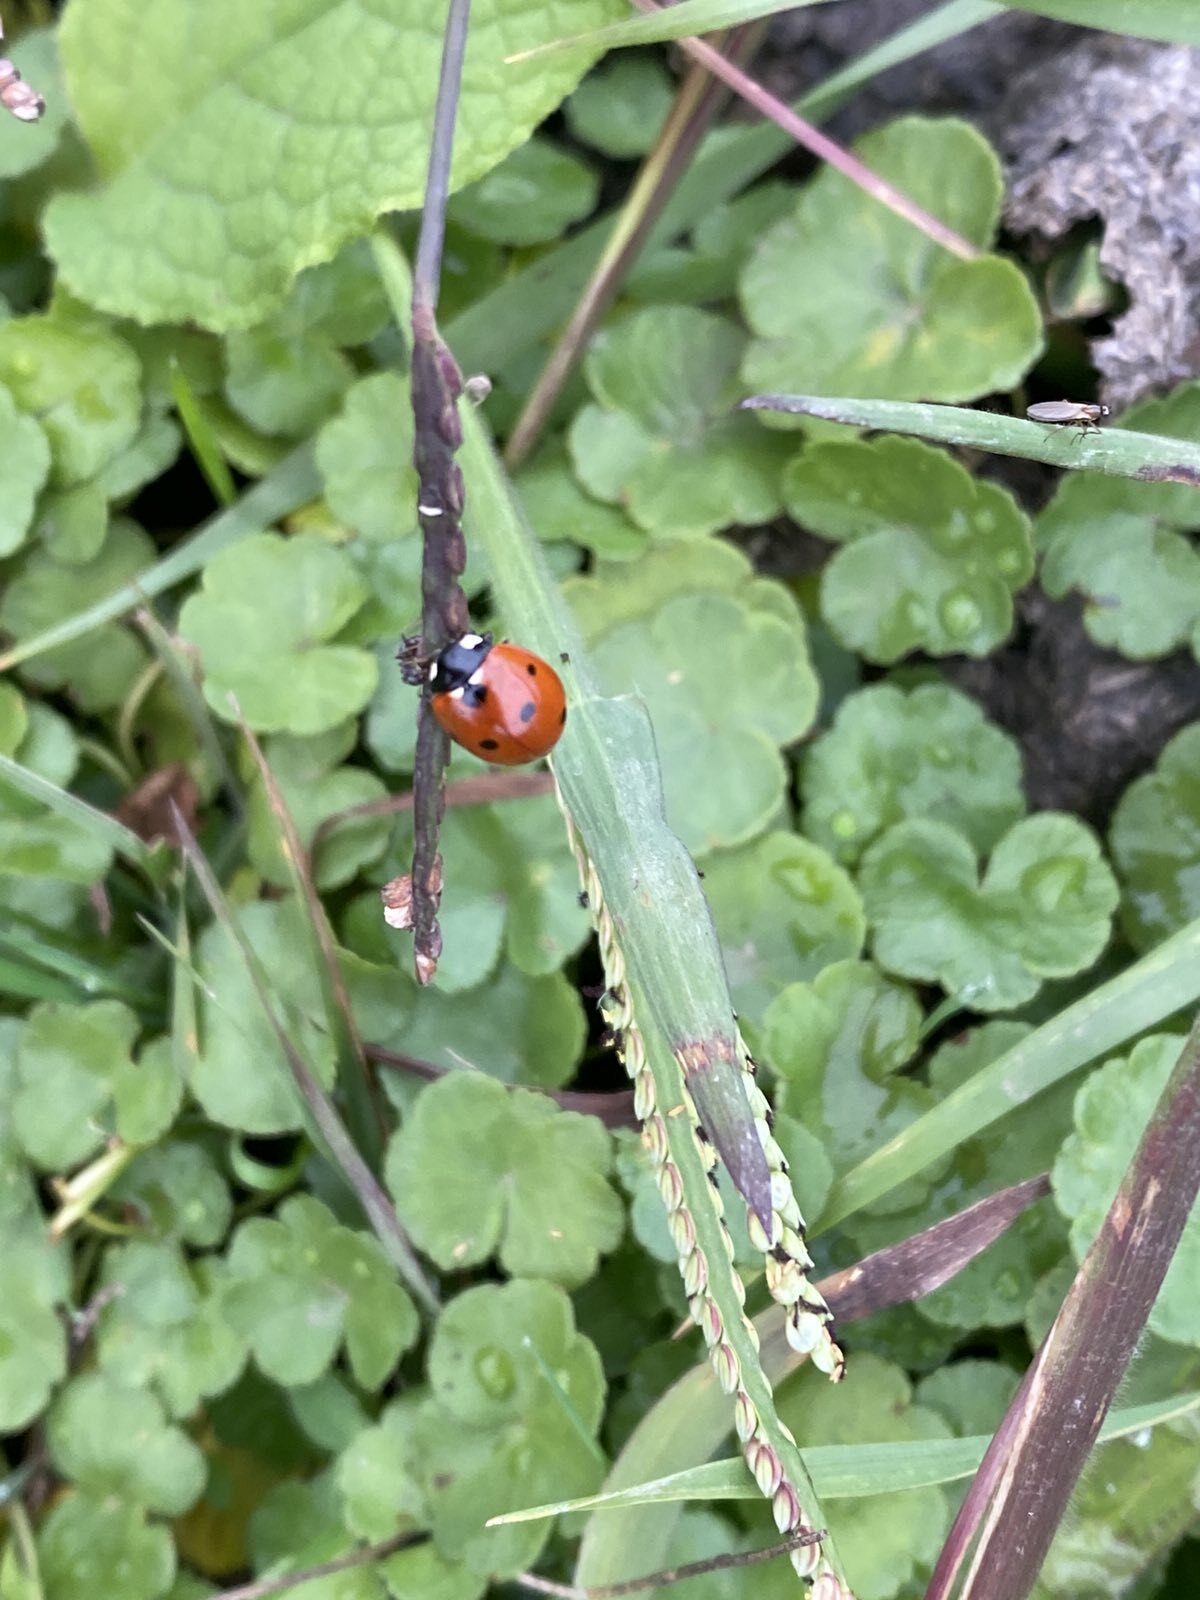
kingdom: Animalia
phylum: Arthropoda
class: Insecta
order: Coleoptera
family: Coccinellidae
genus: Coccinella
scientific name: Coccinella septempunctata
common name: Sevenspotted lady beetle
